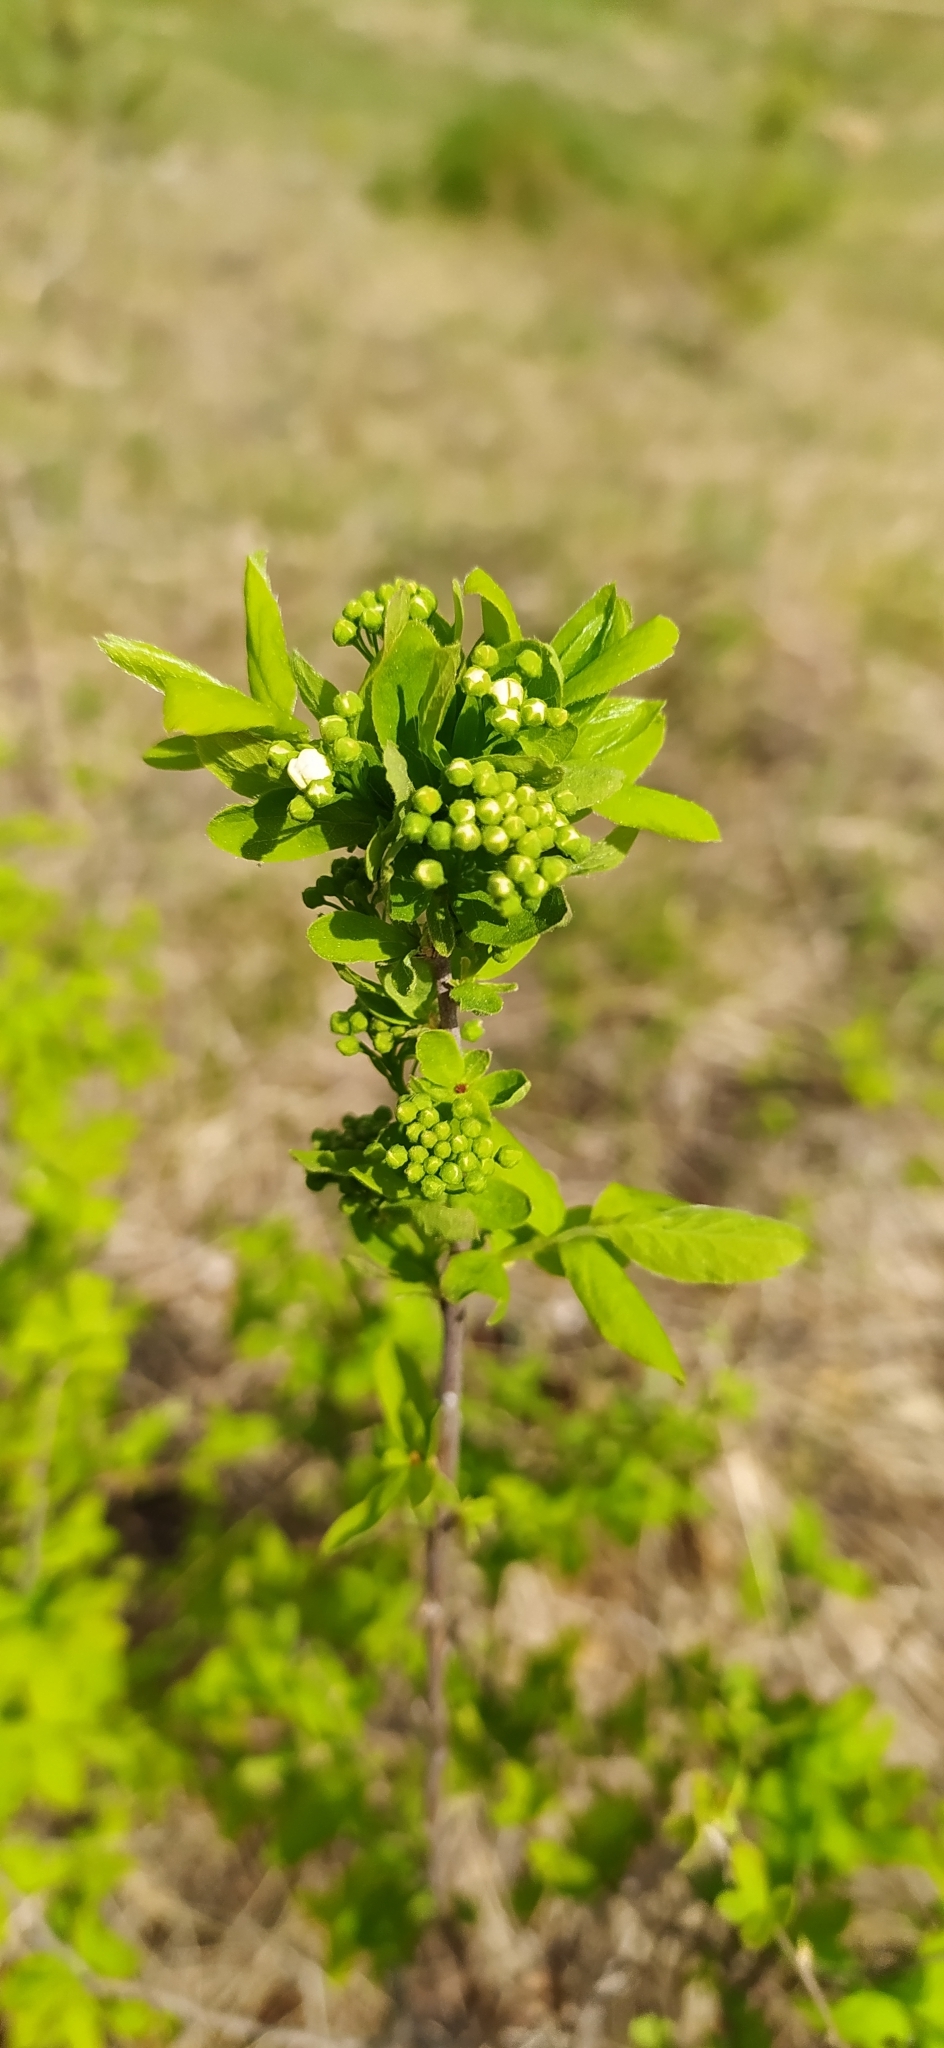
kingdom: Plantae
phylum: Tracheophyta
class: Magnoliopsida
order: Rosales
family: Rosaceae
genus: Spiraea
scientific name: Spiraea media
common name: Russian spiraea
